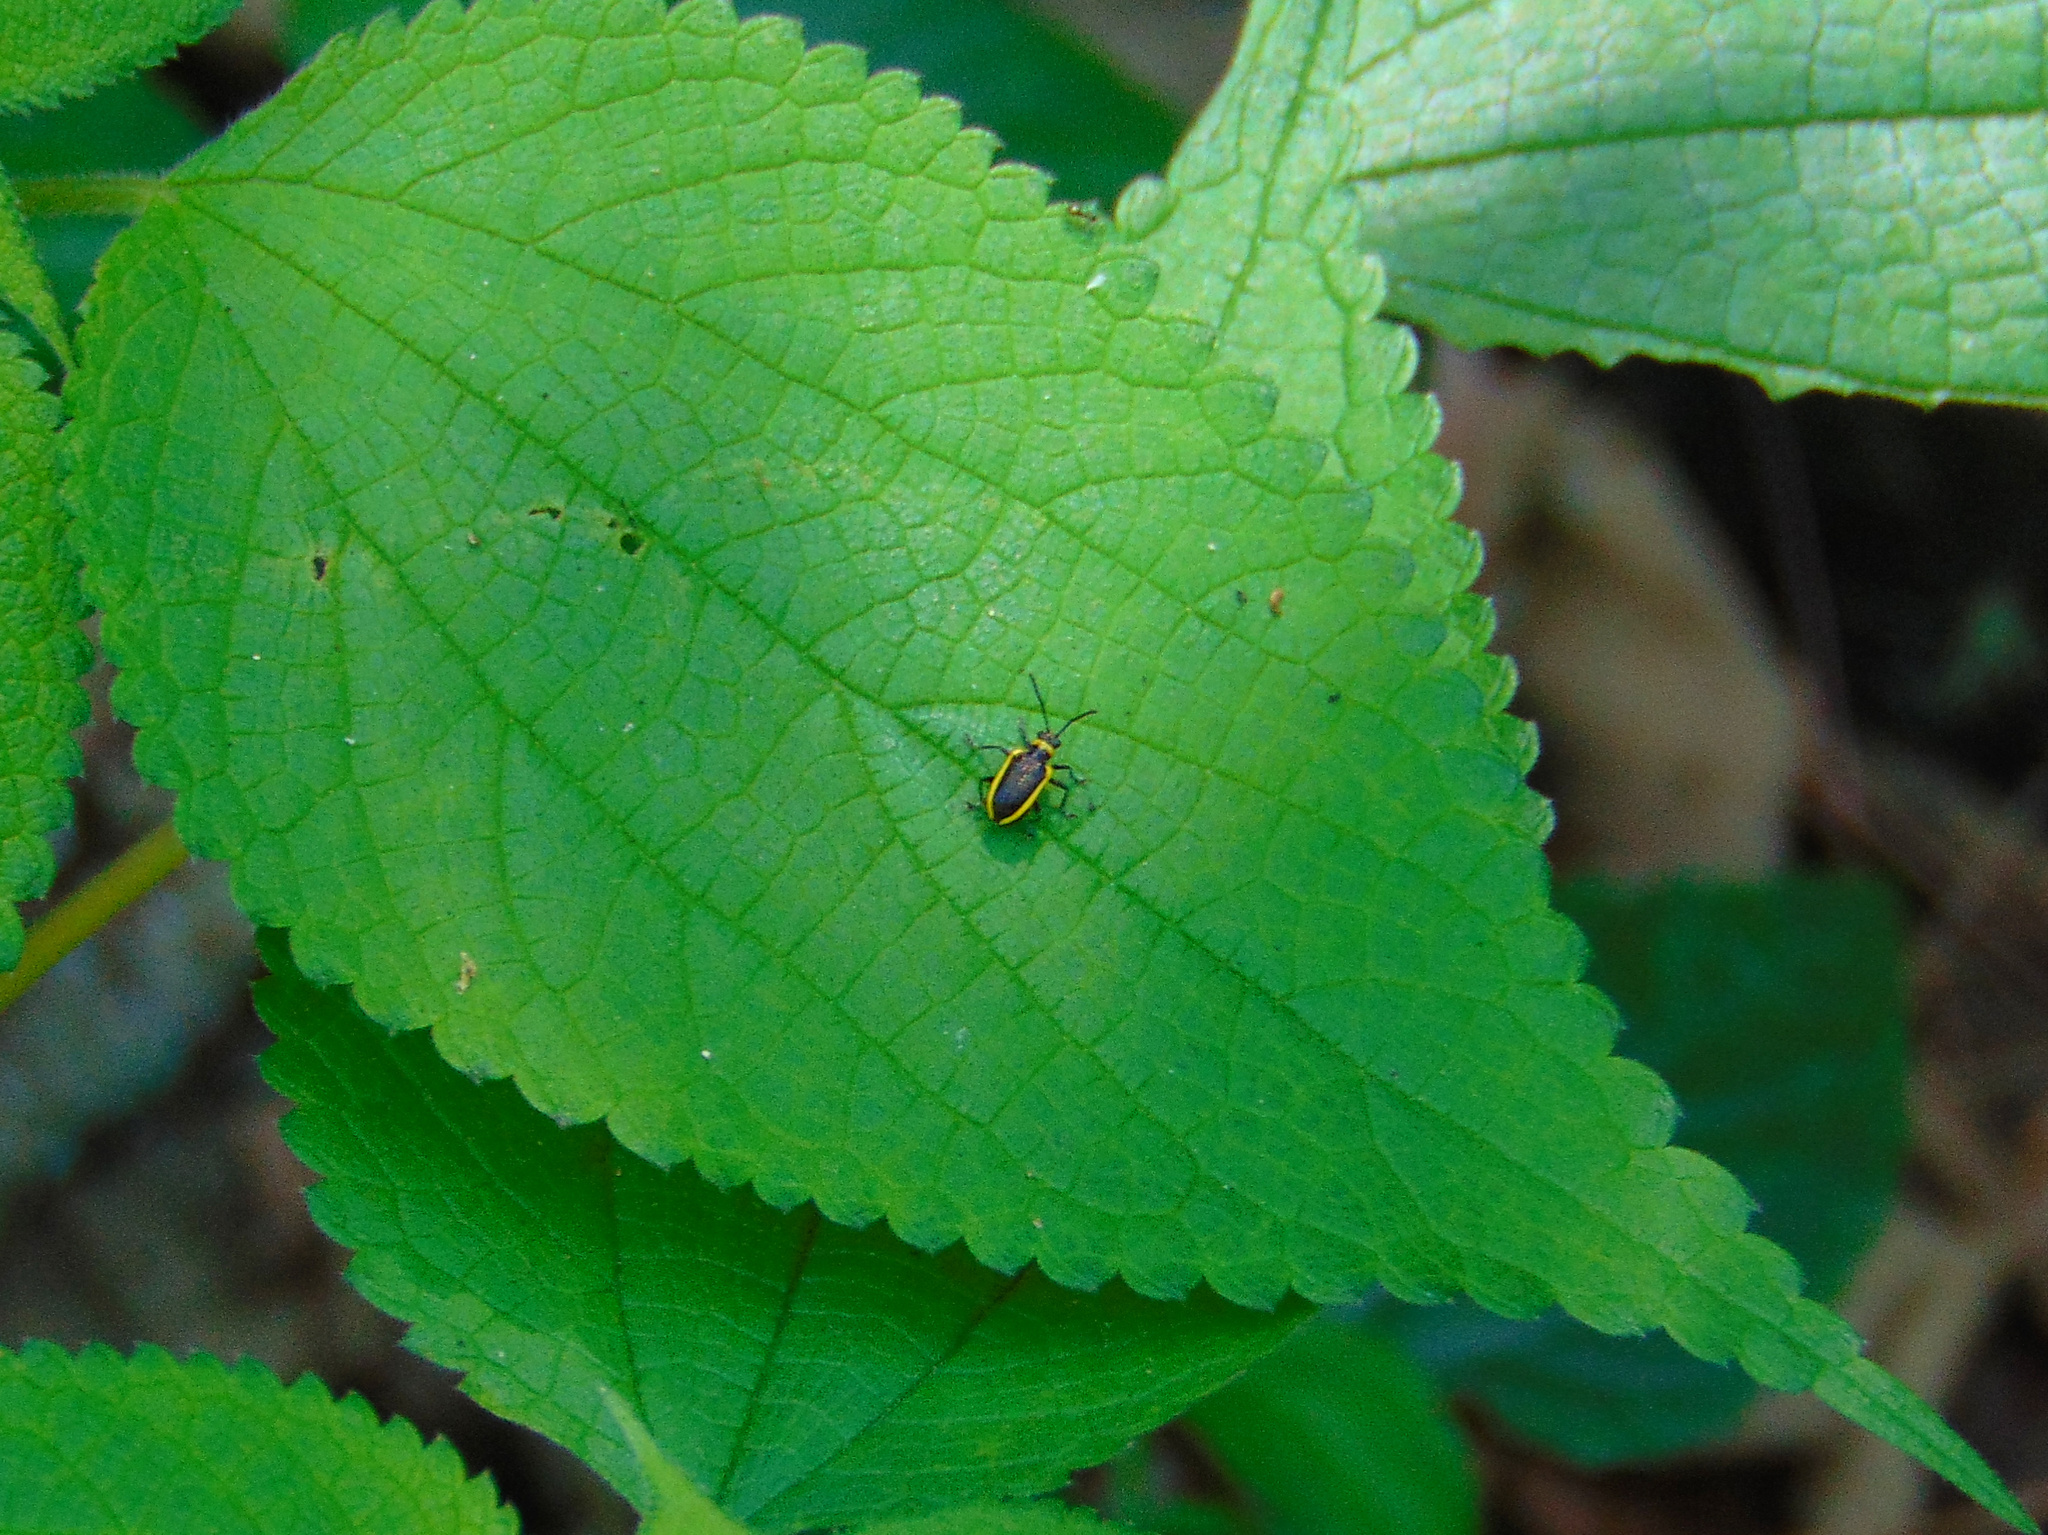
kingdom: Animalia
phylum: Arthropoda
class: Insecta
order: Coleoptera
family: Chrysomelidae
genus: Neolema
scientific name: Neolema
